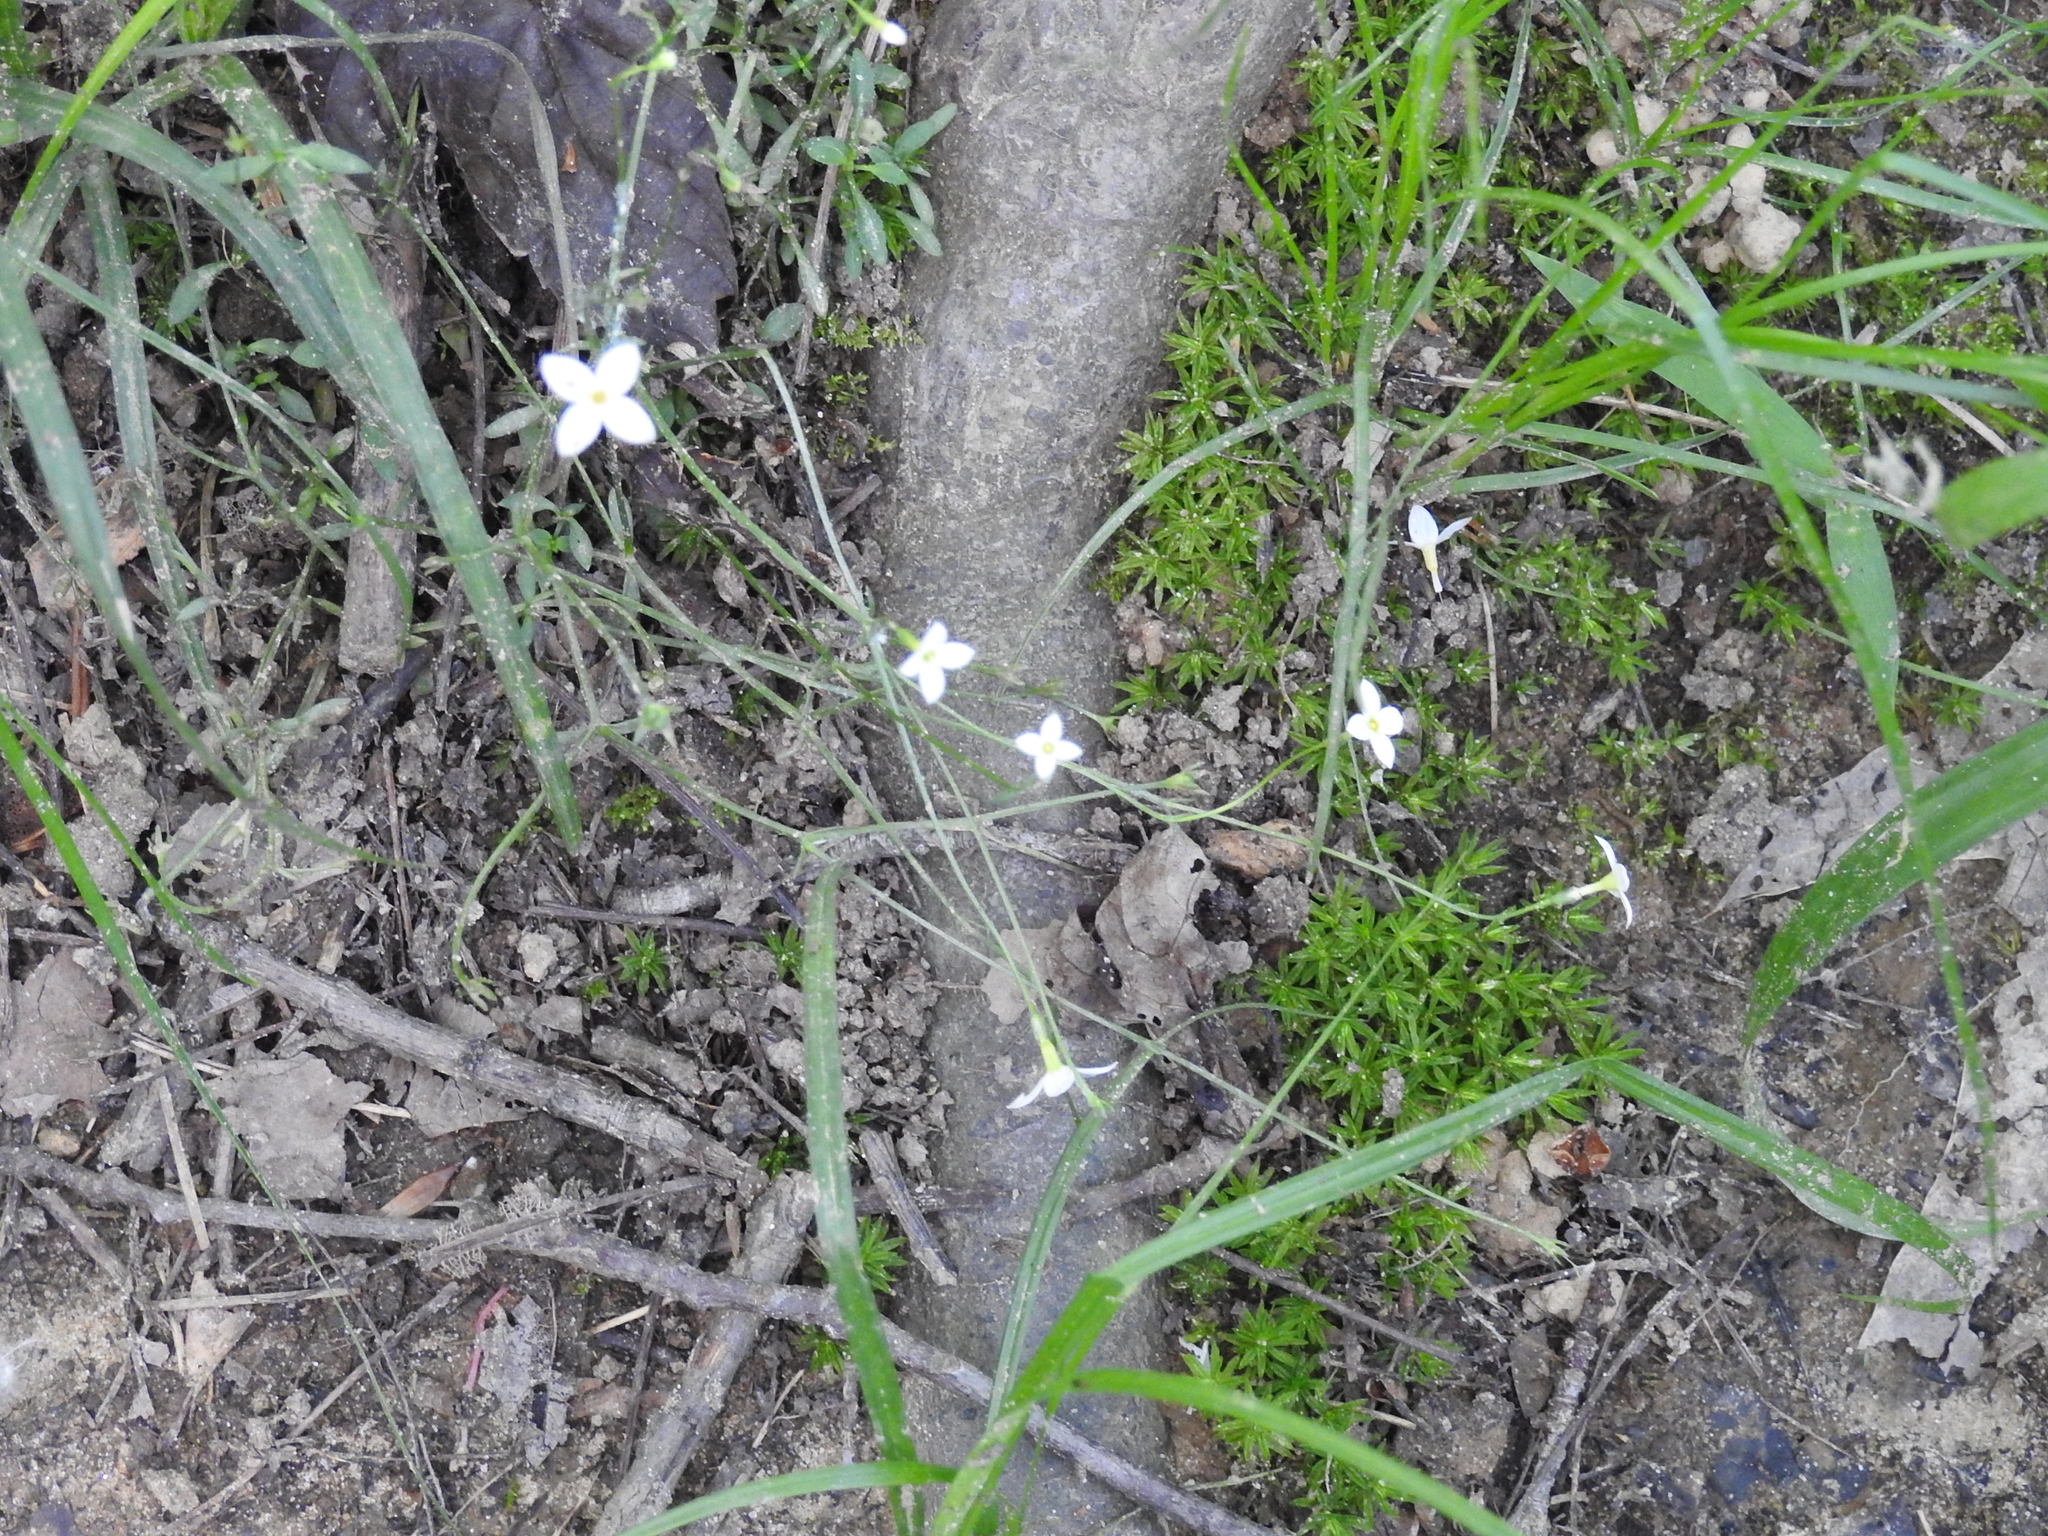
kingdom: Plantae
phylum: Tracheophyta
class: Magnoliopsida
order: Gentianales
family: Rubiaceae
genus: Houstonia
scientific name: Houstonia caerulea
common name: Bluets
